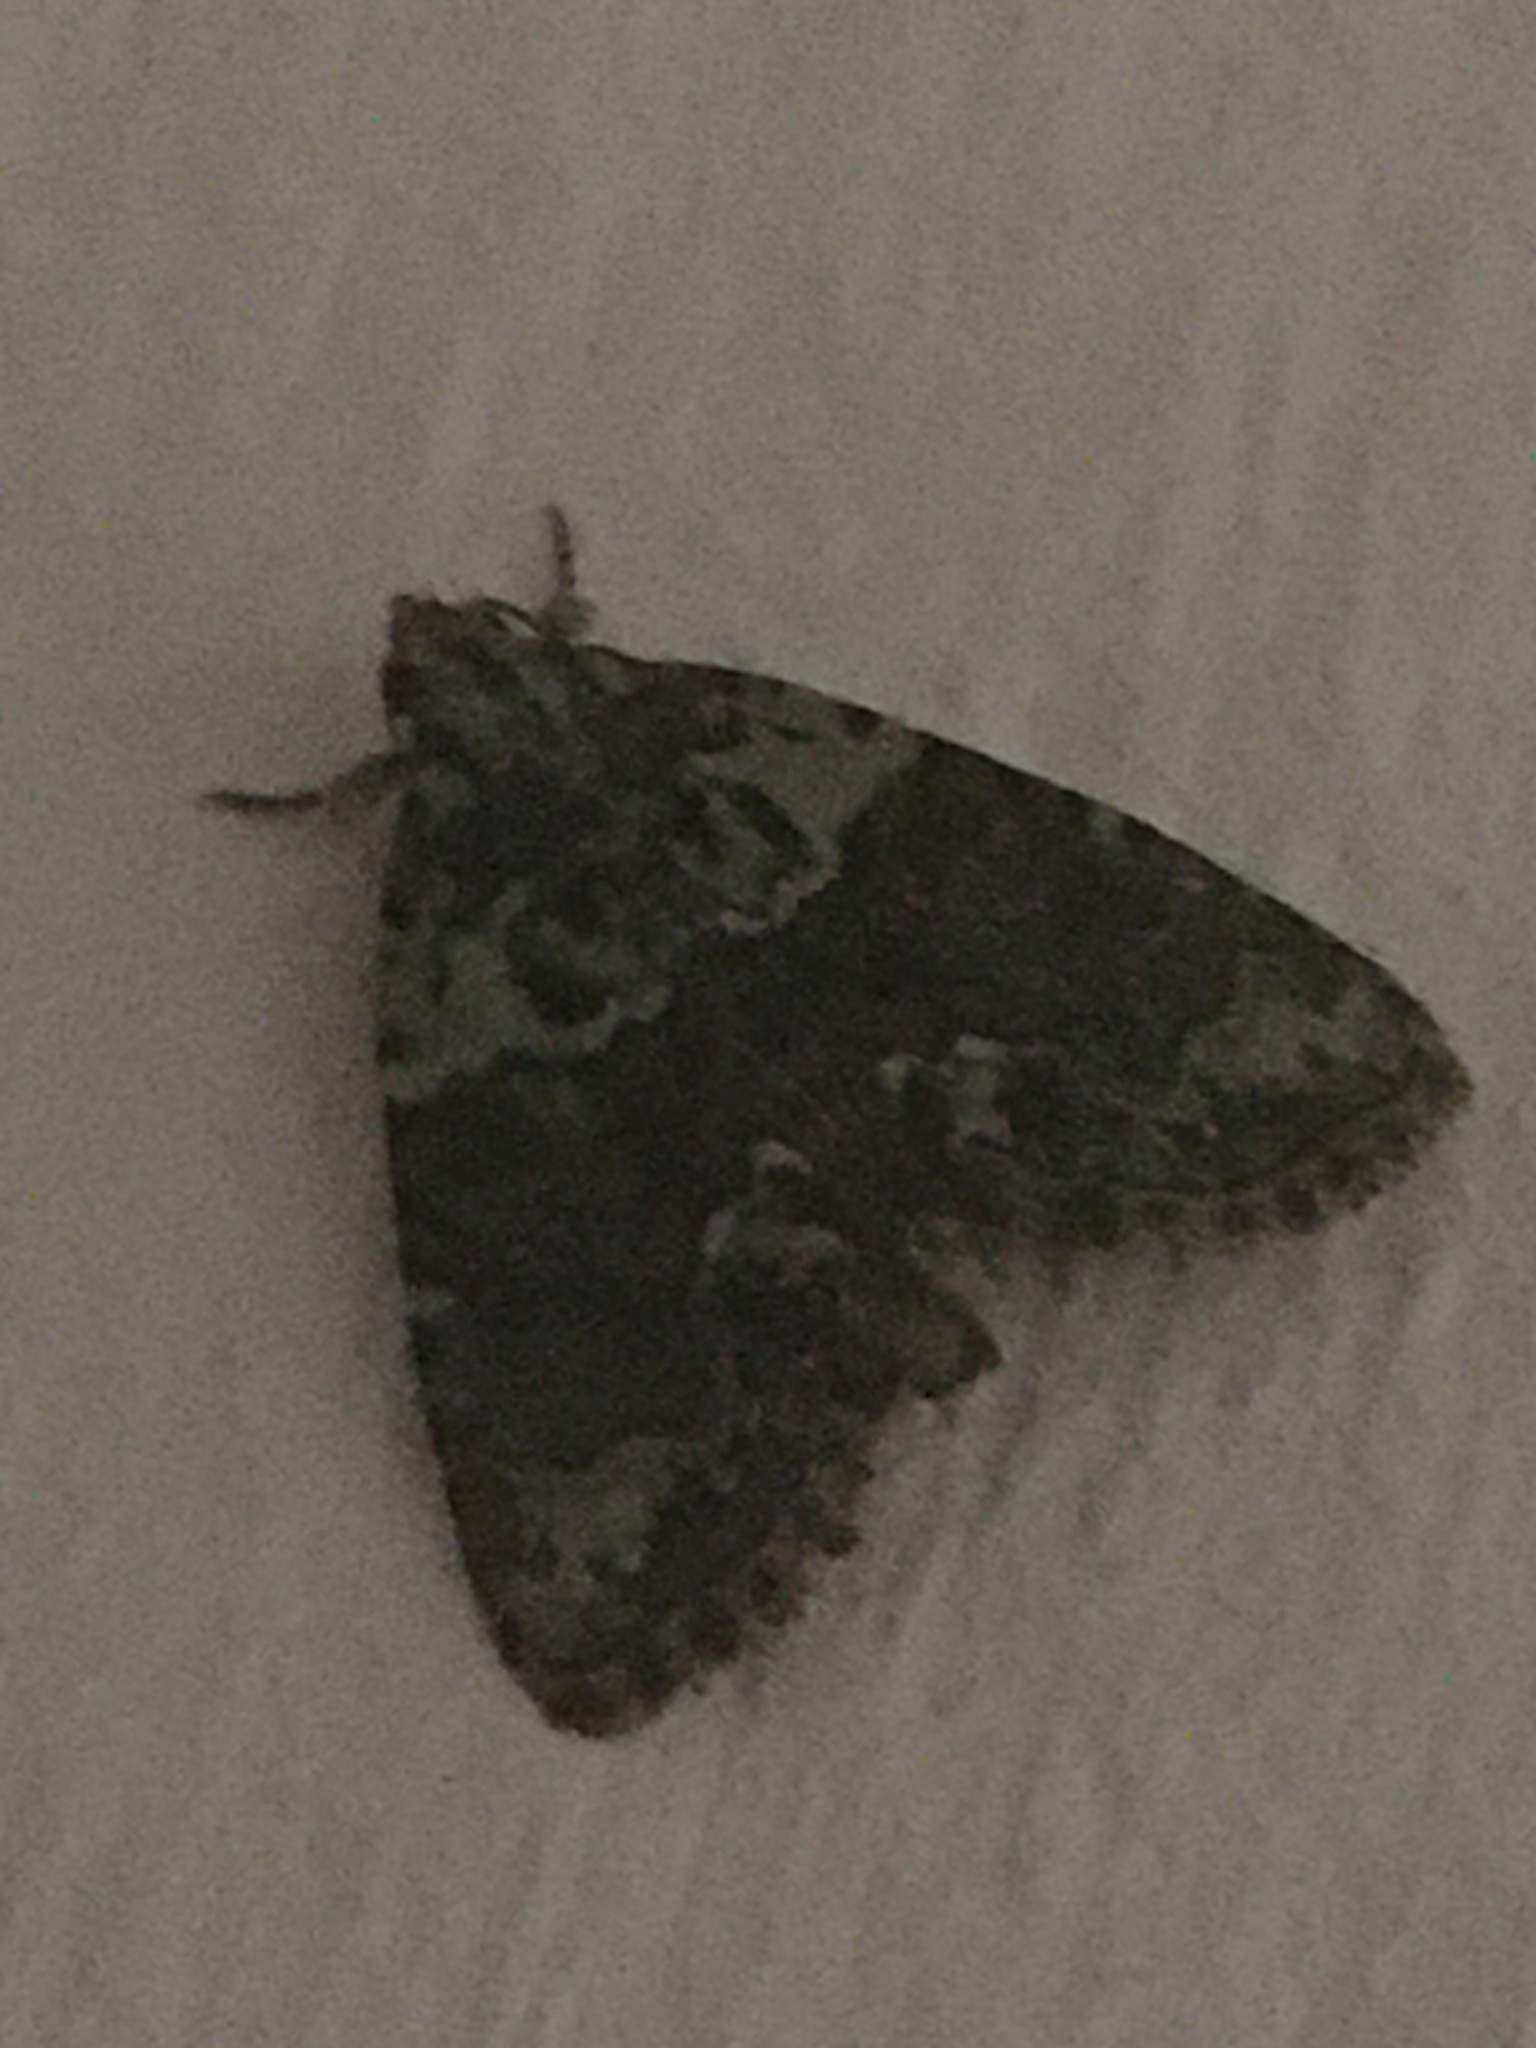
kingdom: Animalia
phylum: Arthropoda
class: Insecta
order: Lepidoptera
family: Noctuidae
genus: Cryphia
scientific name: Cryphia algae
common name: Tree-lichen beauty
